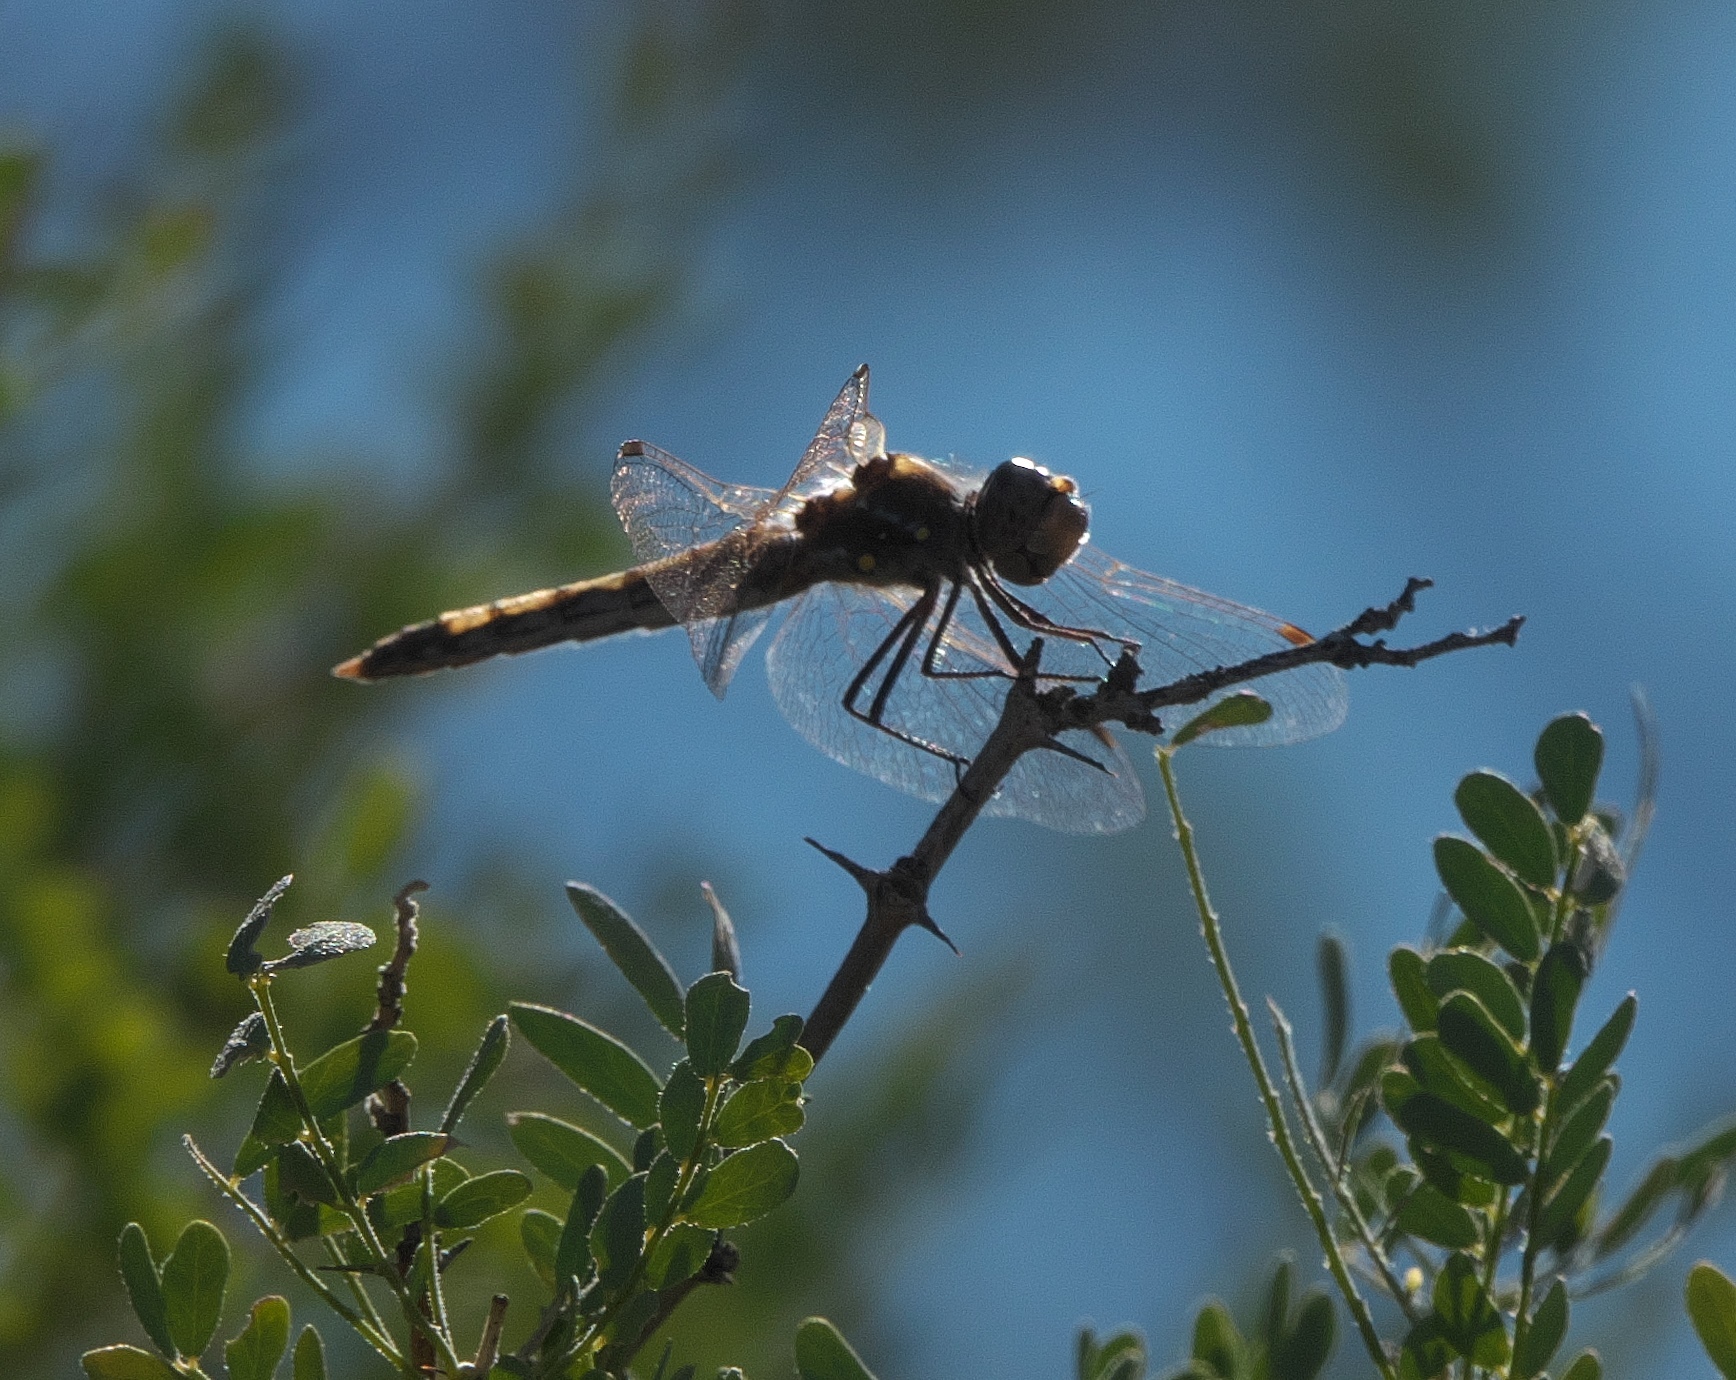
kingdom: Animalia
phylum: Arthropoda
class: Insecta
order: Odonata
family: Libellulidae
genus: Sympetrum
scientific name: Sympetrum corruptum
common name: Variegated meadowhawk
